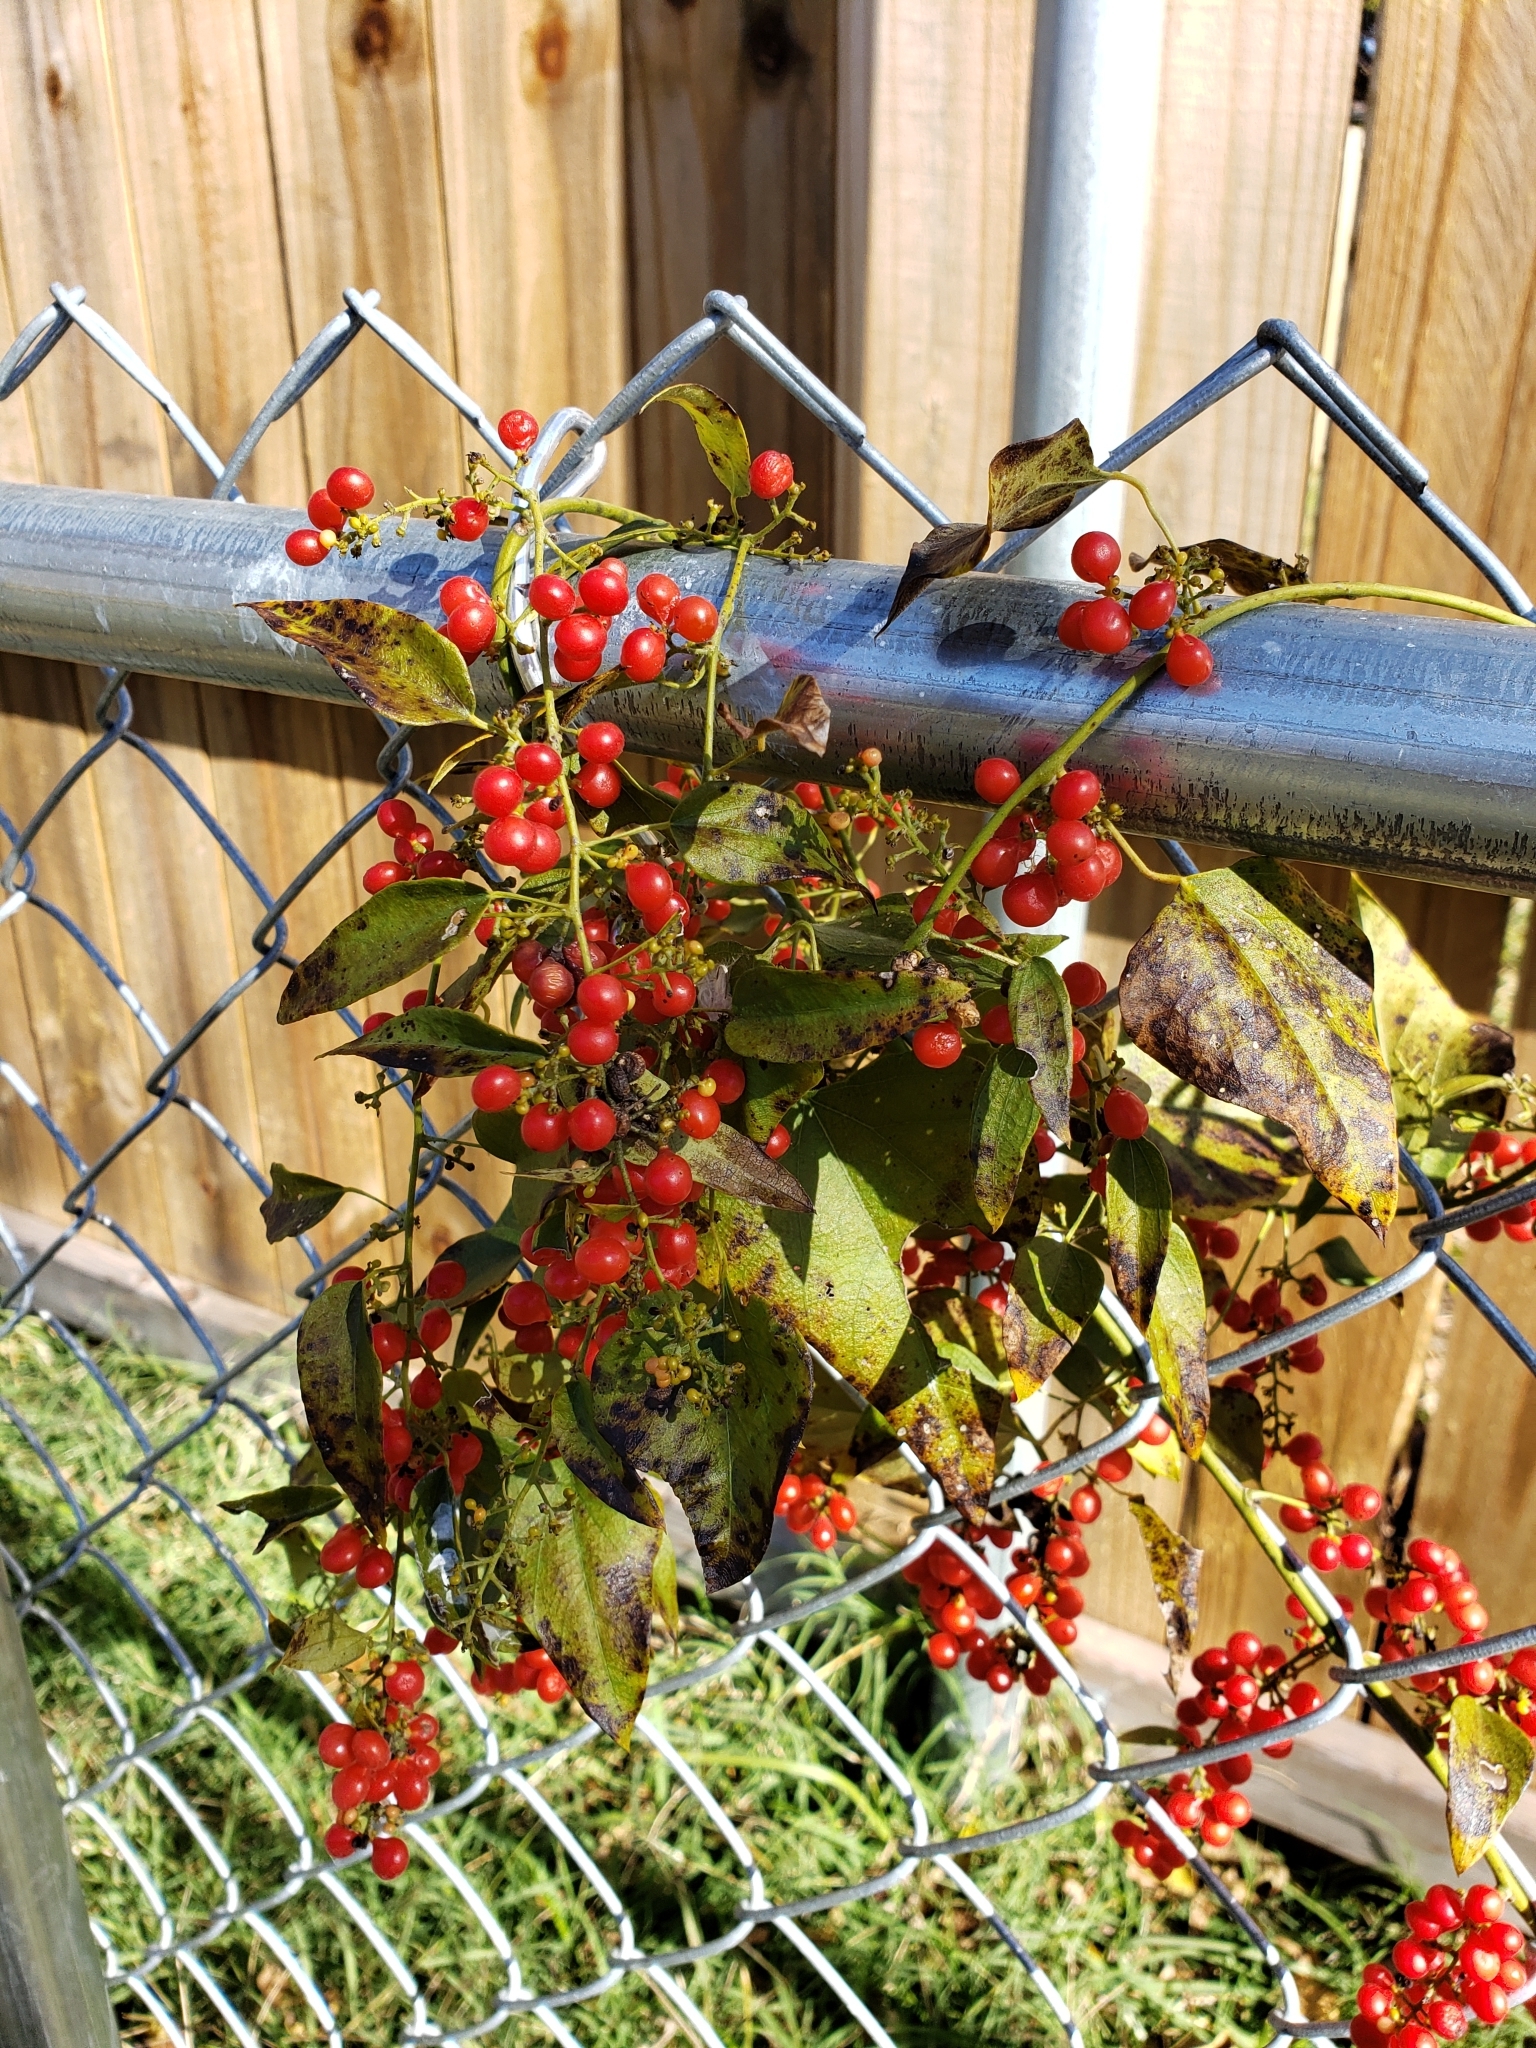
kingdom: Plantae
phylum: Tracheophyta
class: Magnoliopsida
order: Ranunculales
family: Menispermaceae
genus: Cocculus
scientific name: Cocculus carolinus
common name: Carolina moonseed
